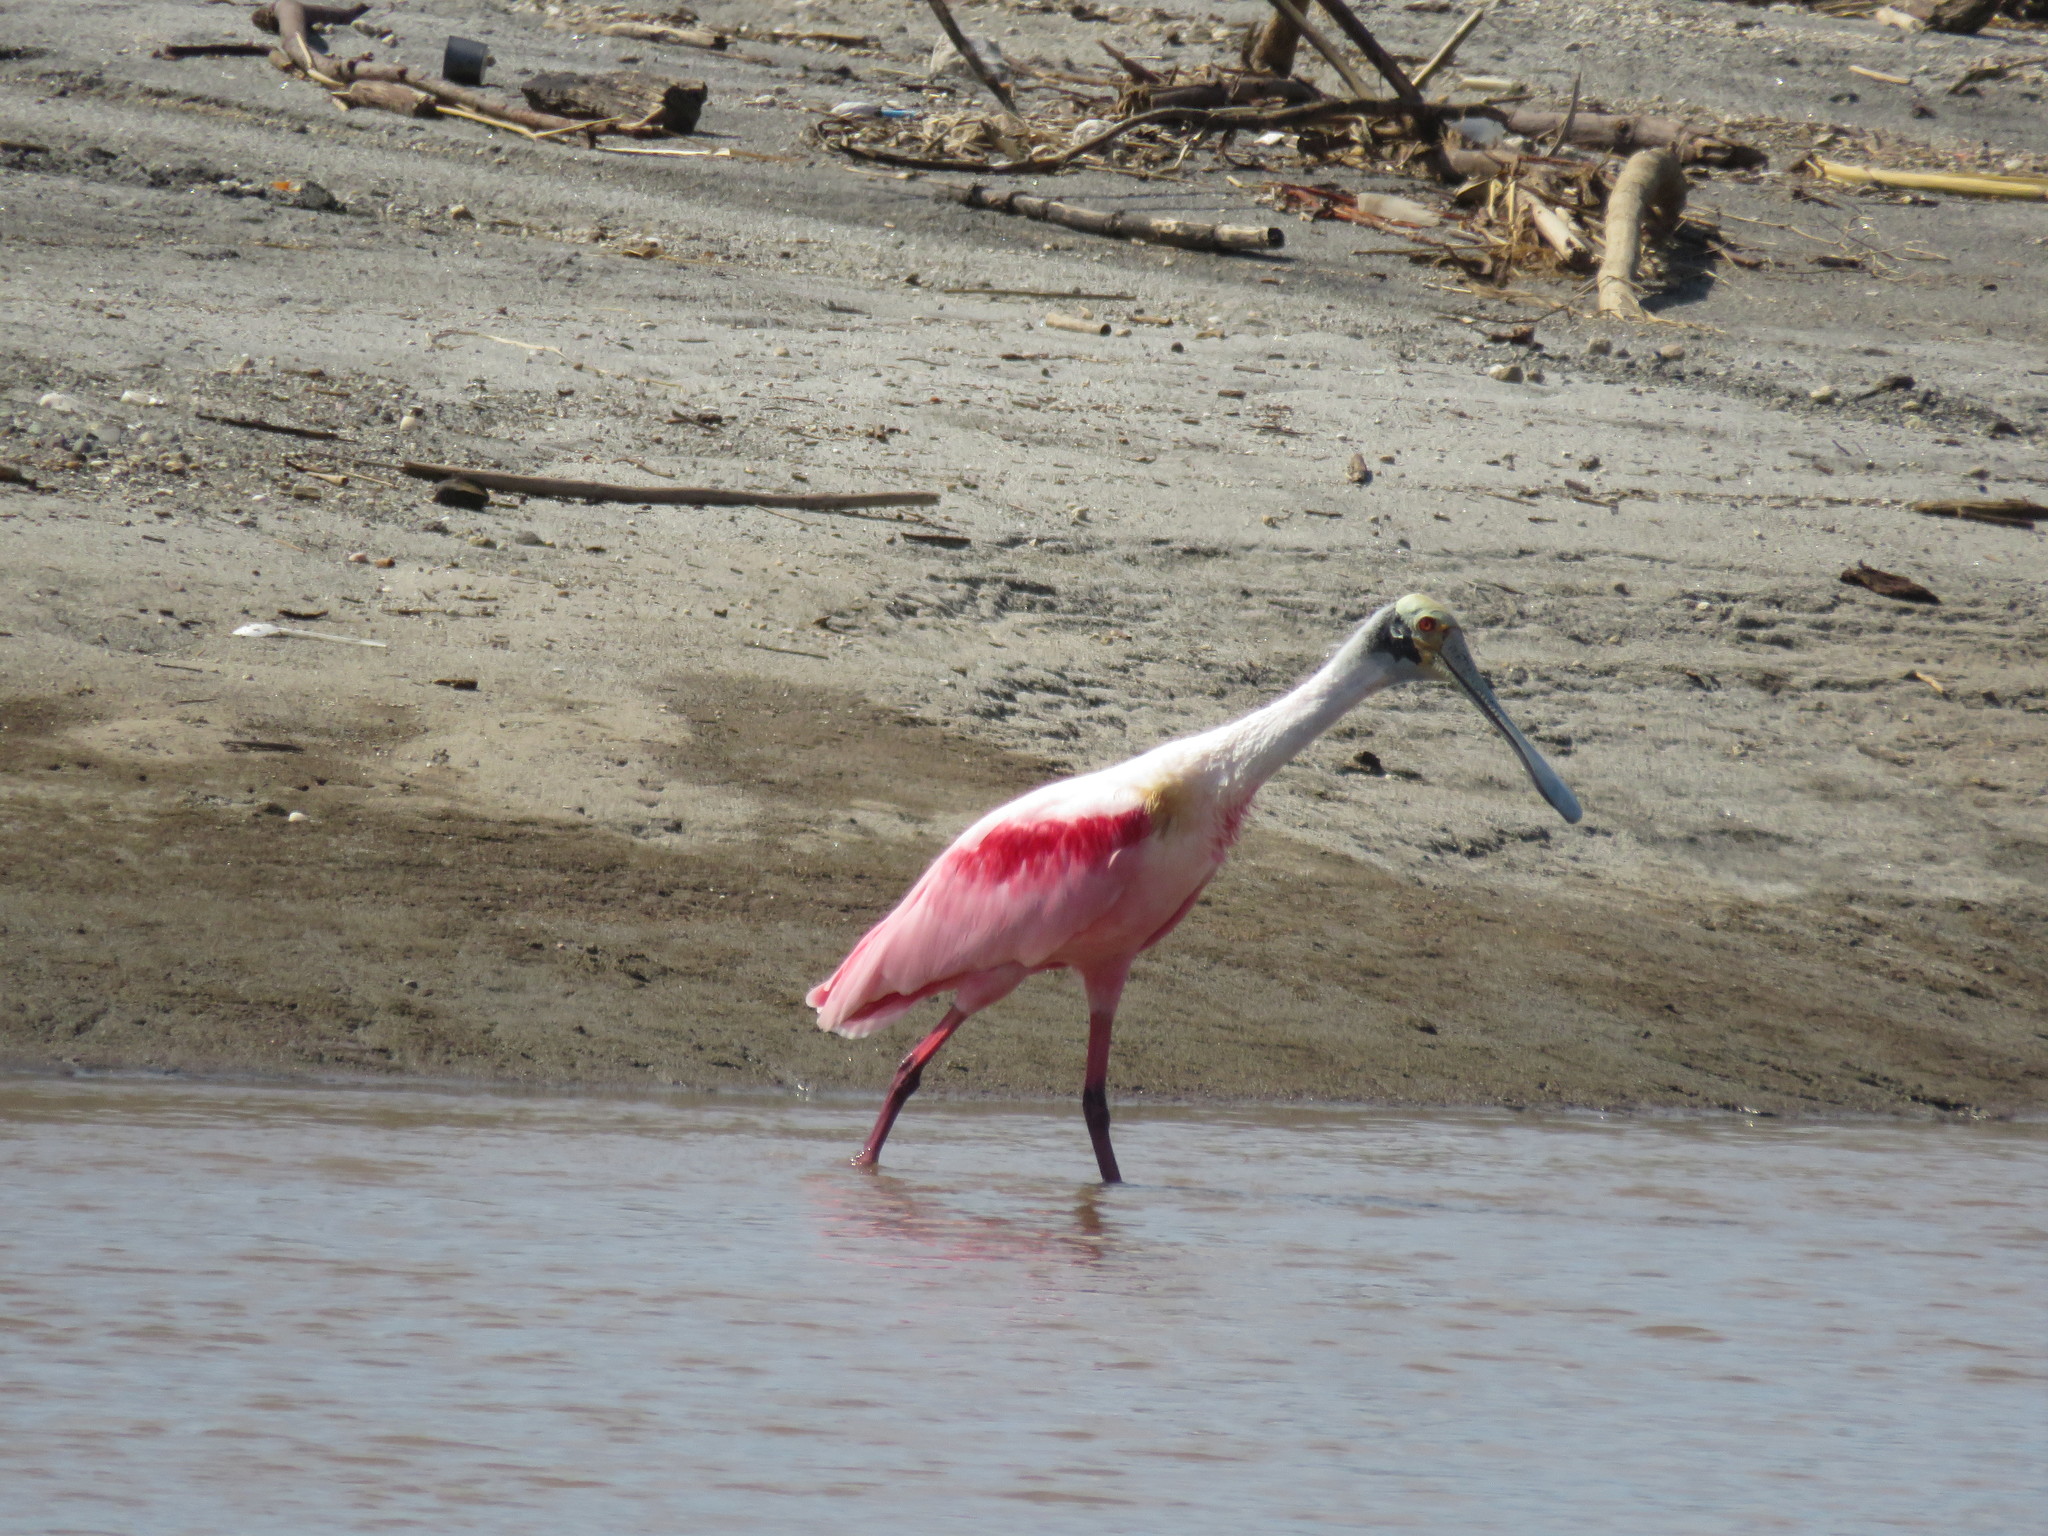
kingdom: Animalia
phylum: Chordata
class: Aves
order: Pelecaniformes
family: Threskiornithidae
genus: Platalea
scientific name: Platalea ajaja
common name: Roseate spoonbill
